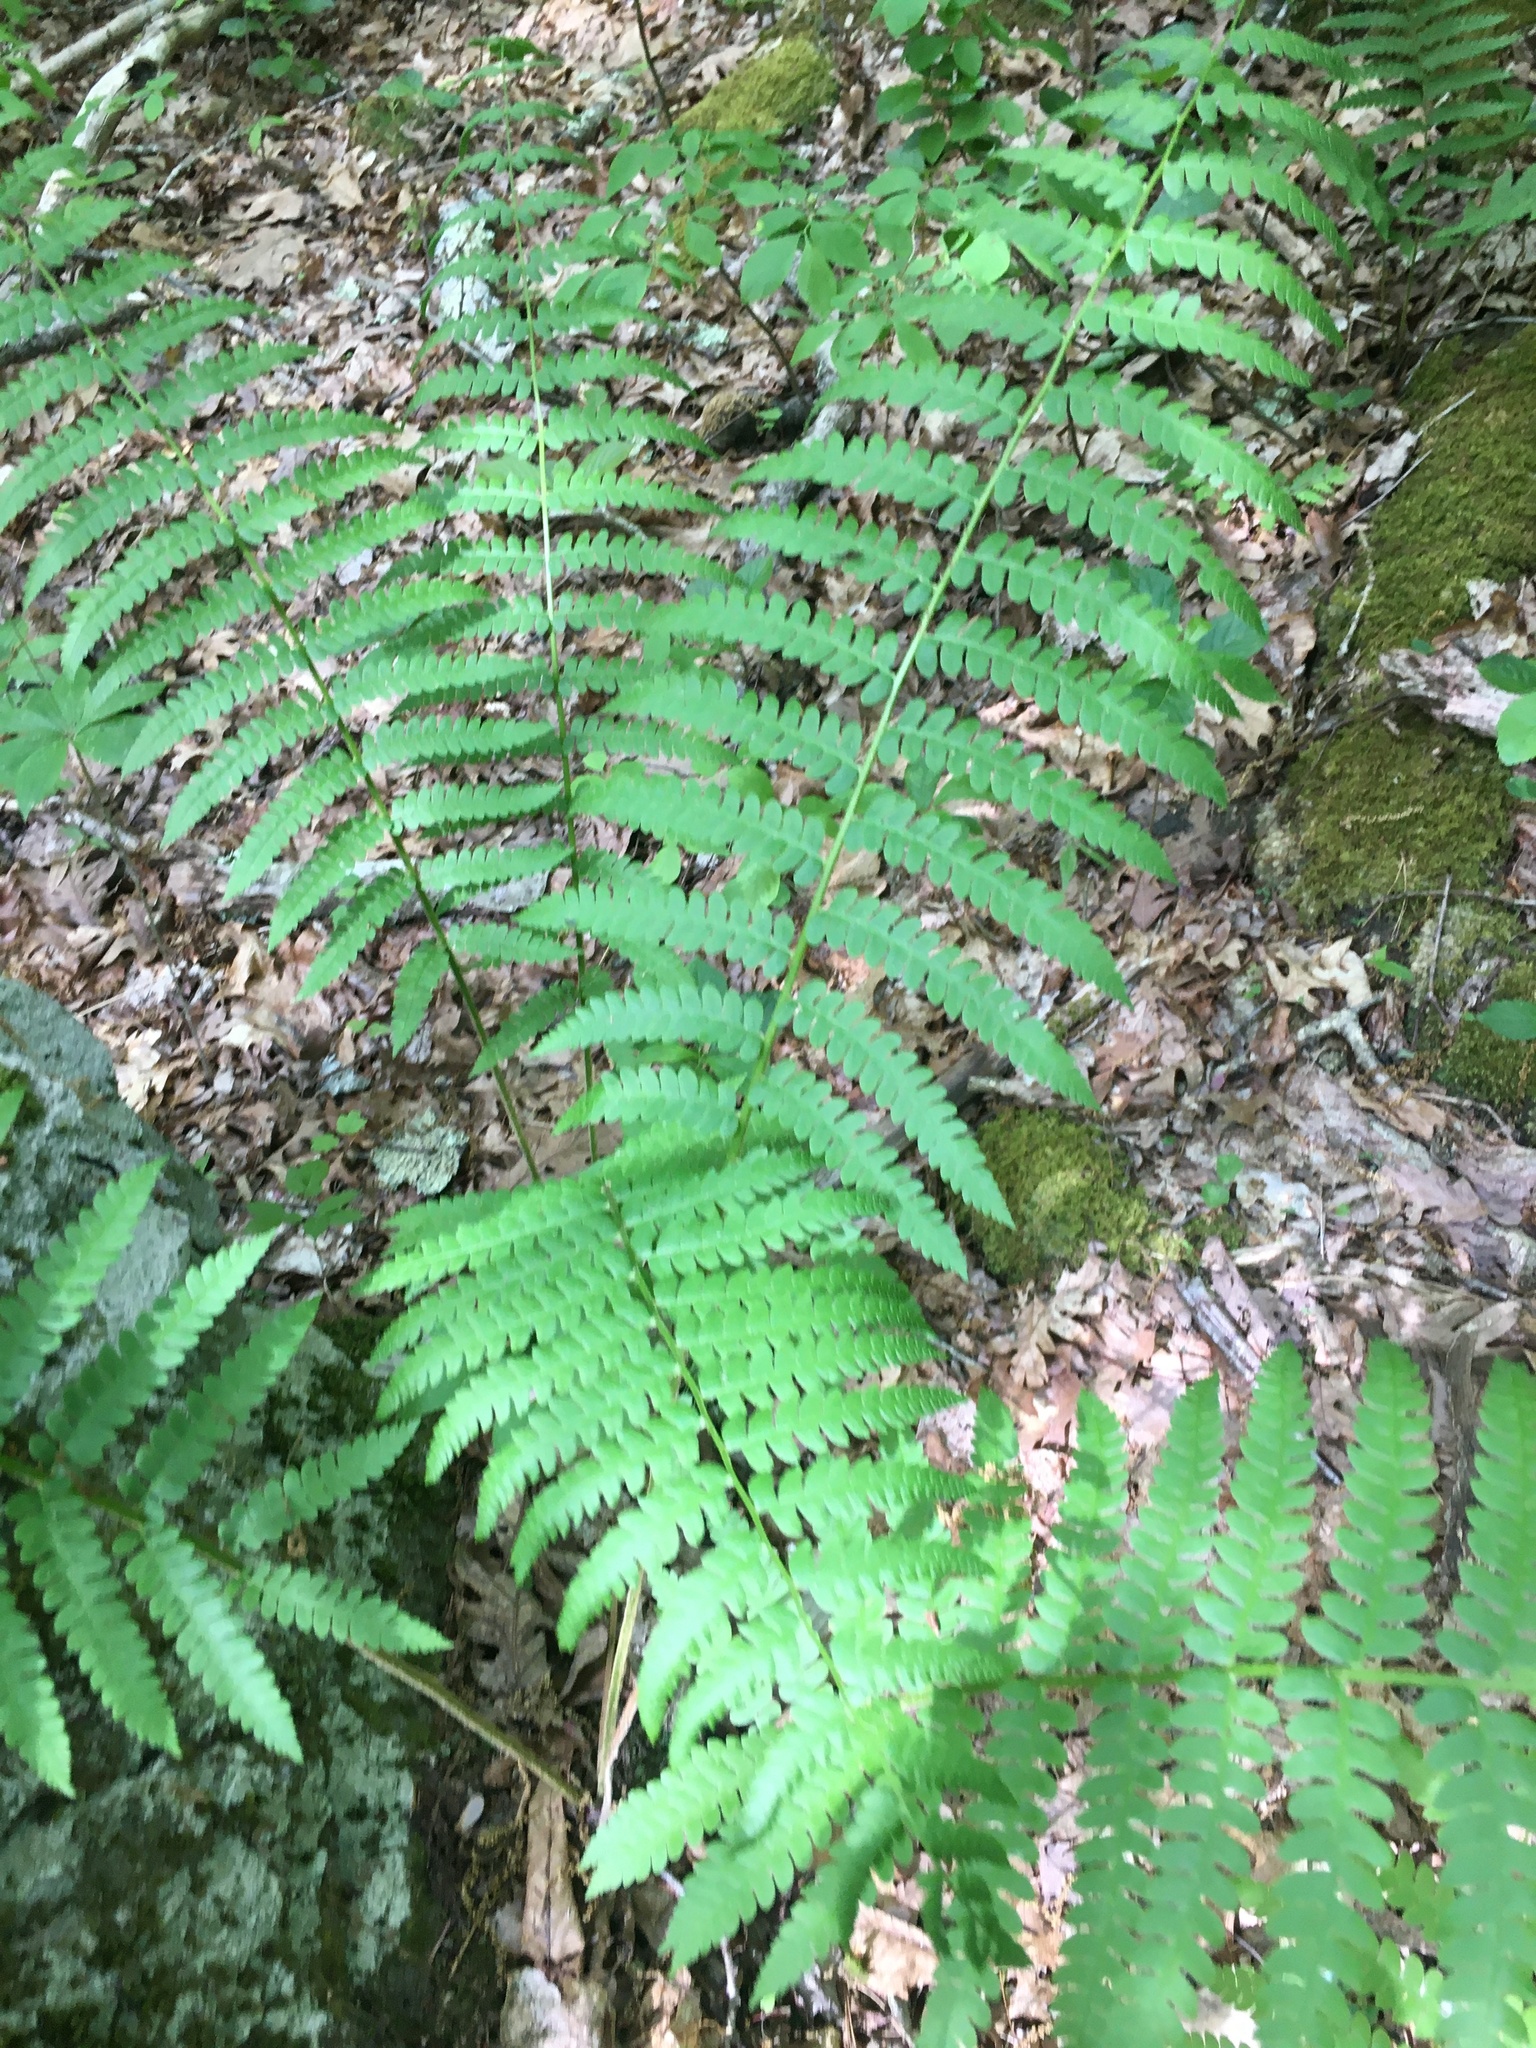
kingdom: Plantae
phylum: Tracheophyta
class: Polypodiopsida
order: Osmundales
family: Osmundaceae
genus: Osmundastrum
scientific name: Osmundastrum cinnamomeum
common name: Cinnamon fern
